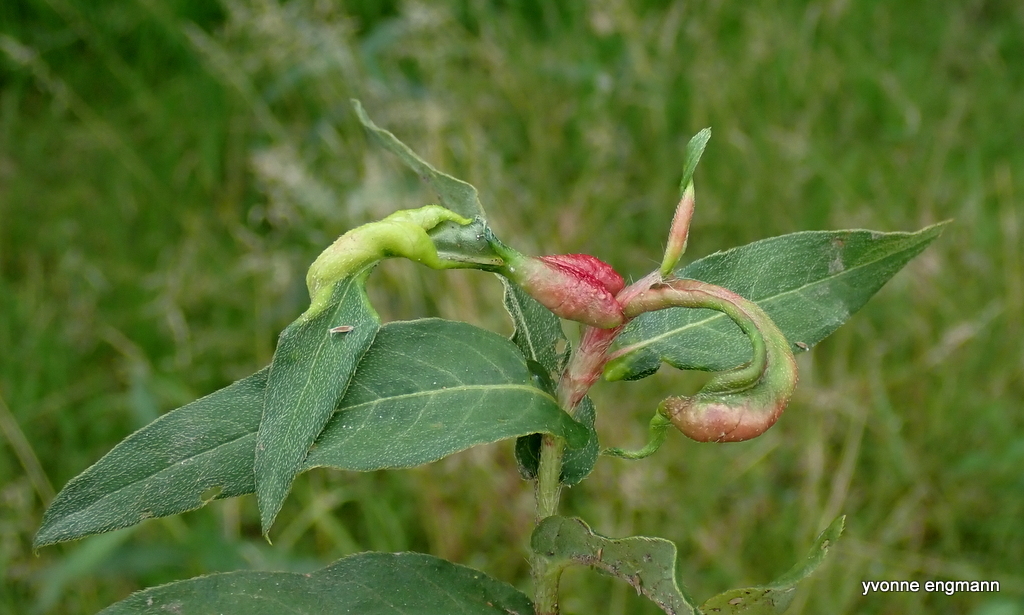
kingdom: Animalia
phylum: Arthropoda
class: Insecta
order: Diptera
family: Cecidomyiidae
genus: Wachtliella
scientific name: Wachtliella persicariae
